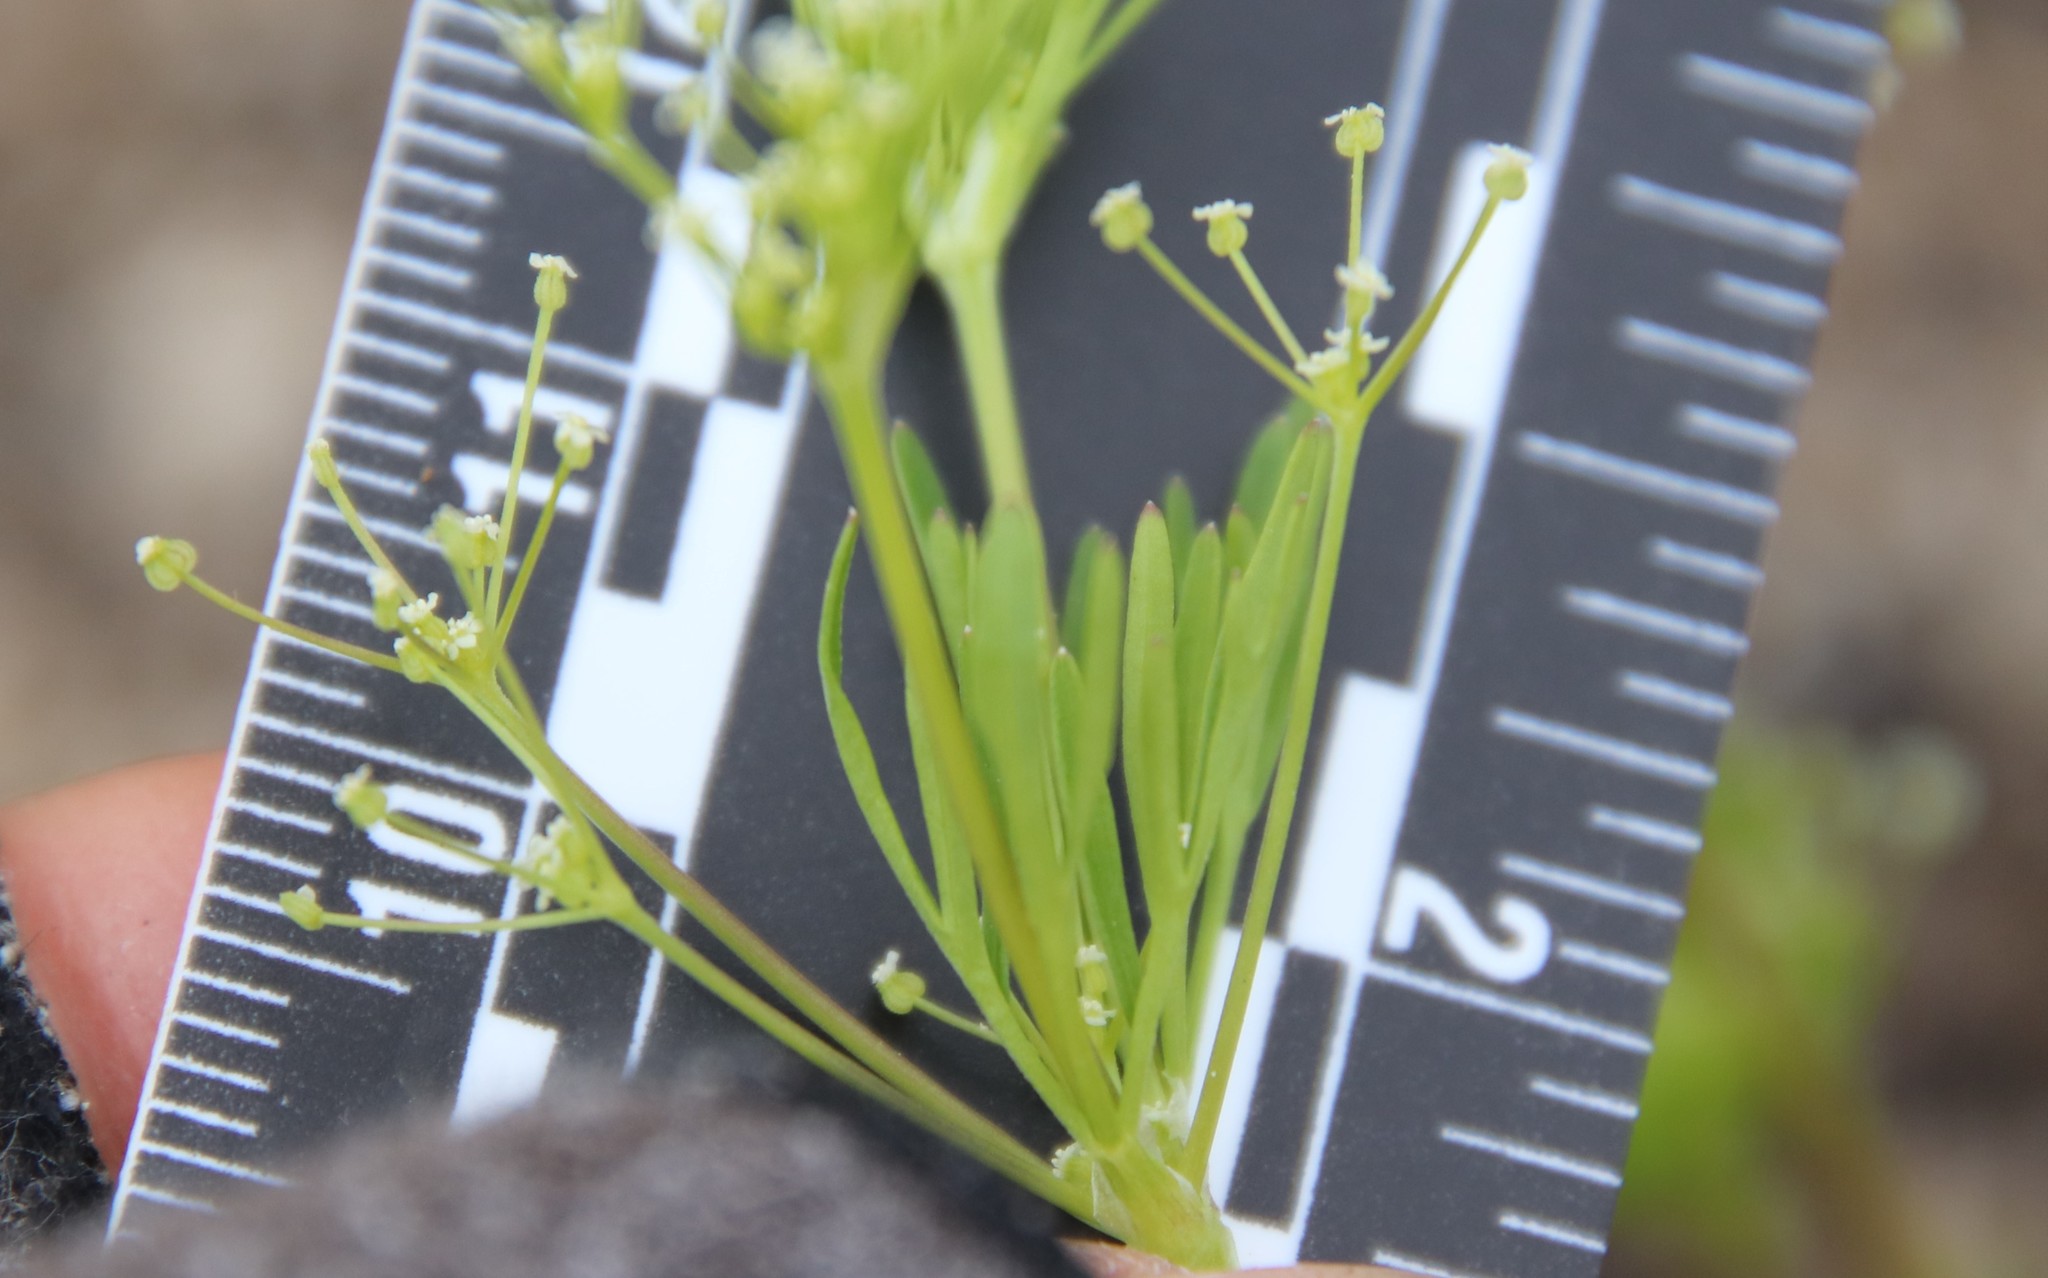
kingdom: Plantae
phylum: Tracheophyta
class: Magnoliopsida
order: Apiales
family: Apiaceae
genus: Apiastrum
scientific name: Apiastrum angustifolium
